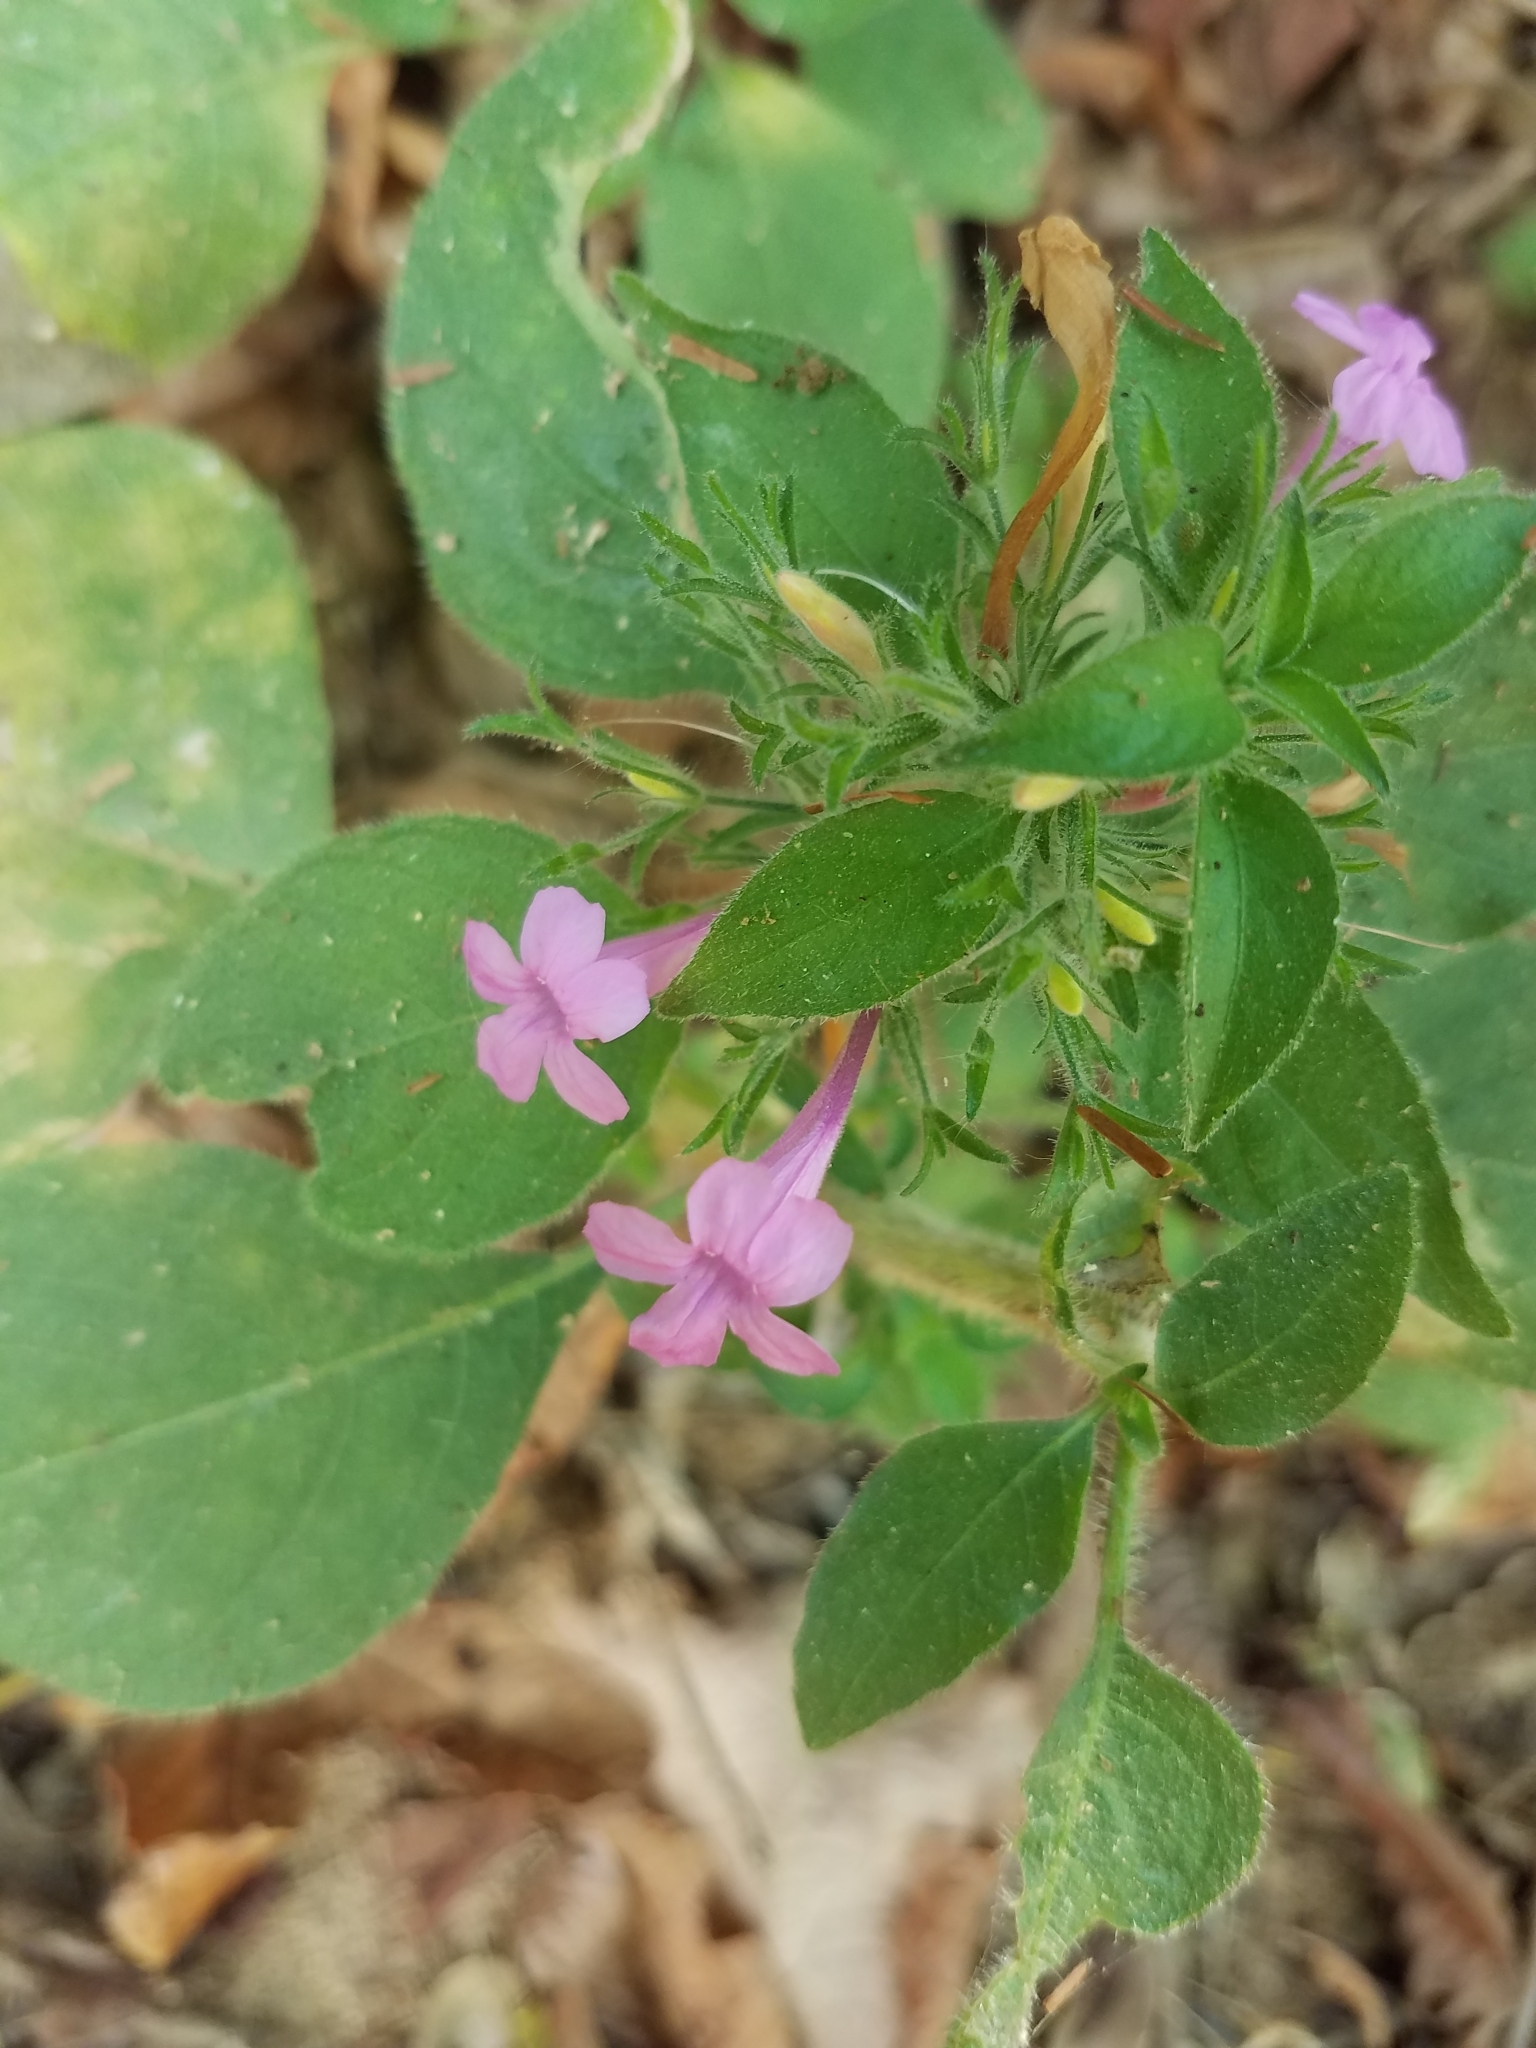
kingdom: Plantae
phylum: Tracheophyta
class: Magnoliopsida
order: Lamiales
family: Acanthaceae
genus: Ruellia
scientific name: Ruellia inundata
